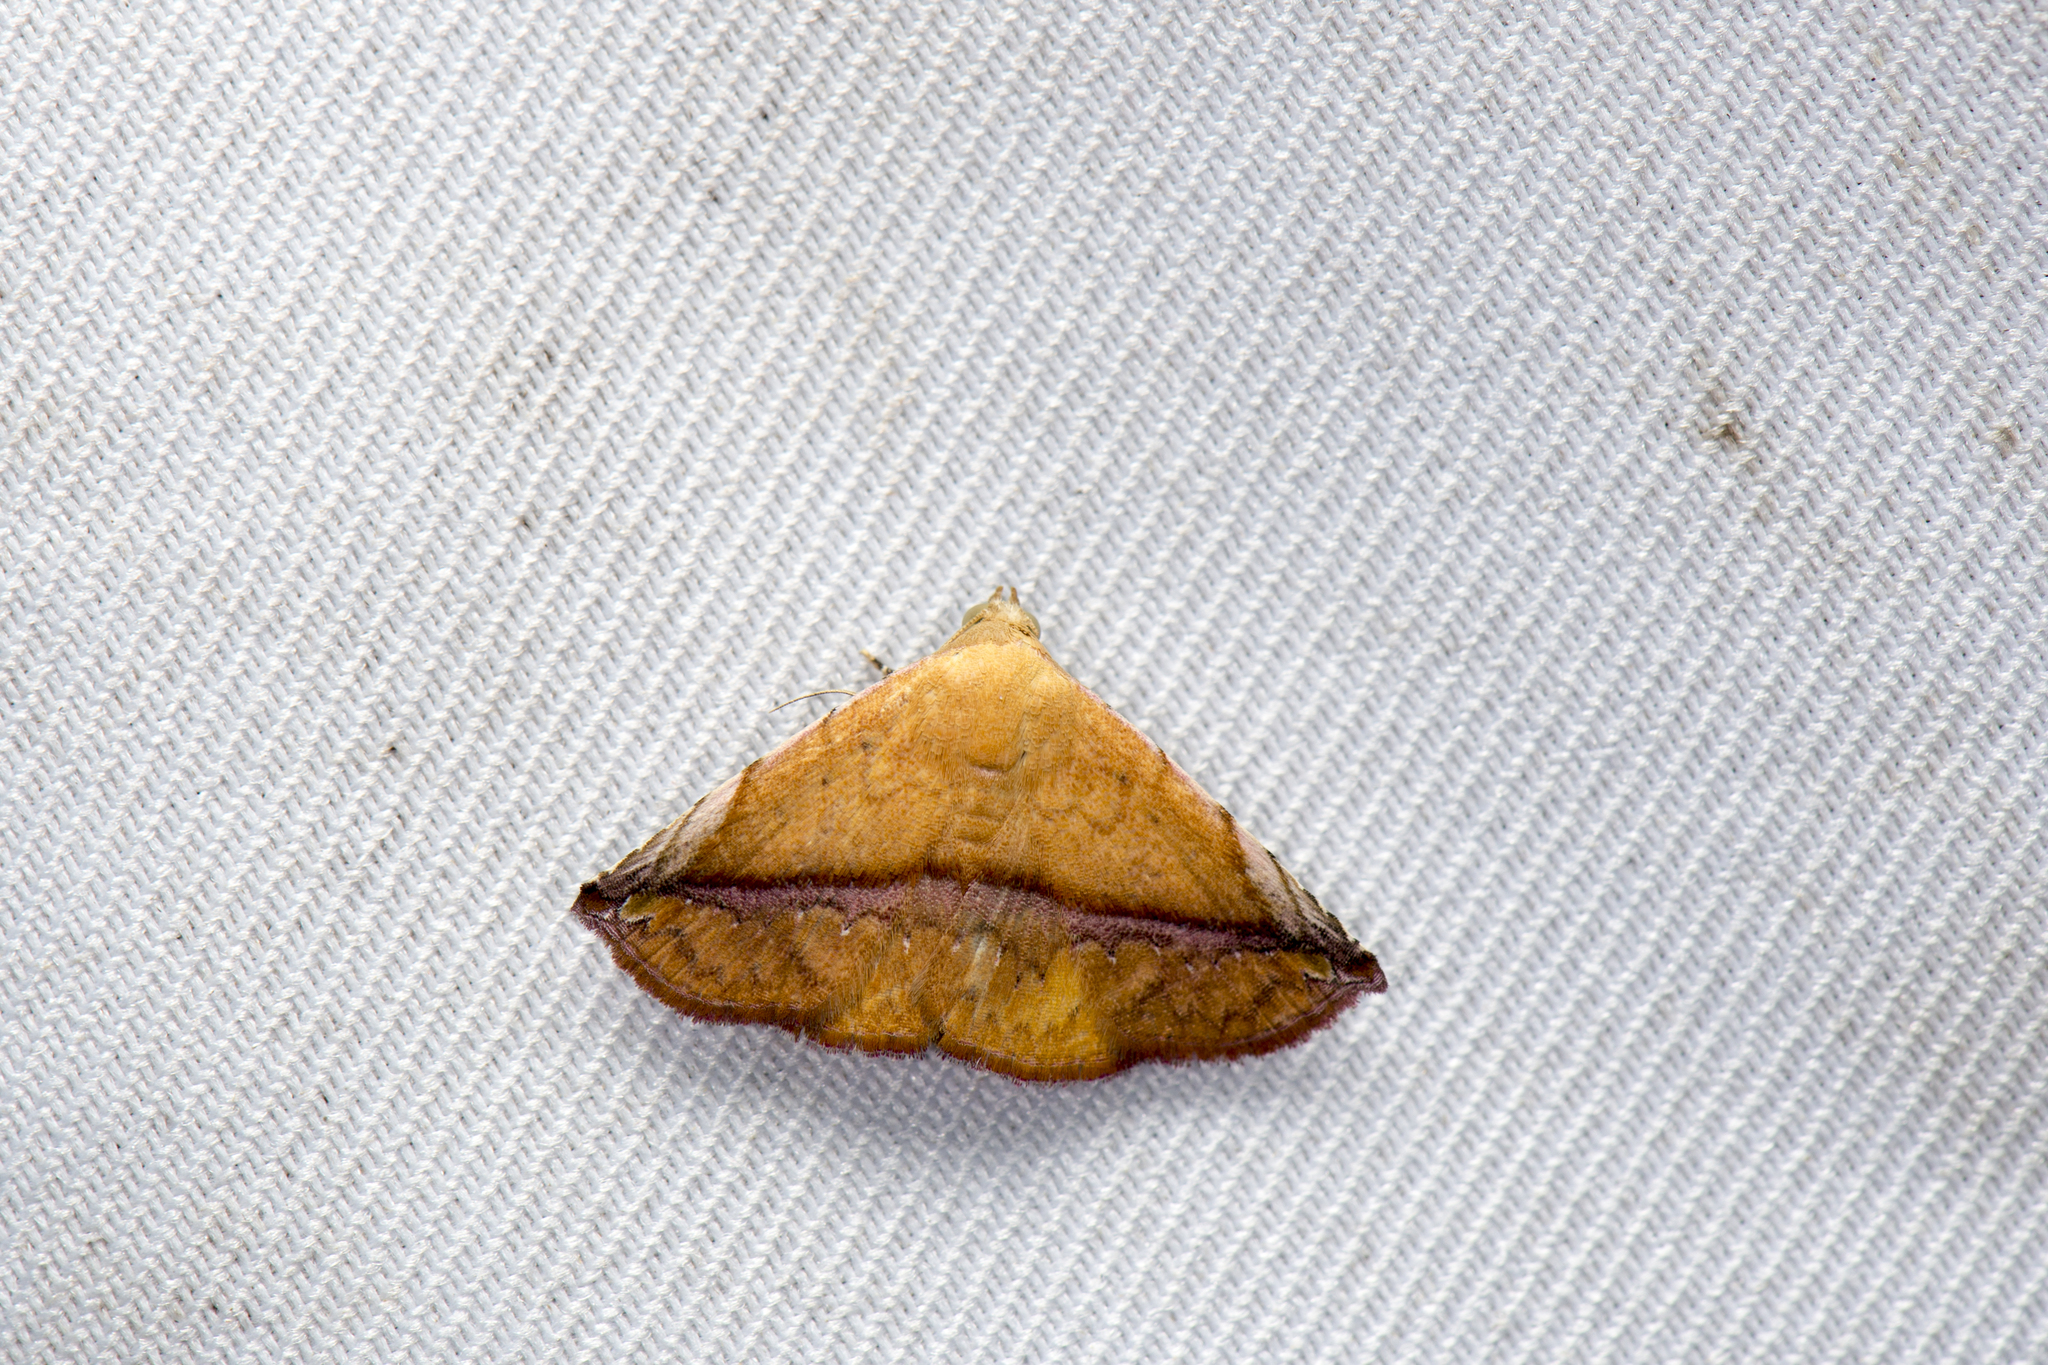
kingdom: Animalia
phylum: Arthropoda
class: Insecta
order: Lepidoptera
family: Noctuidae
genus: Autoba
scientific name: Autoba quadrapex
